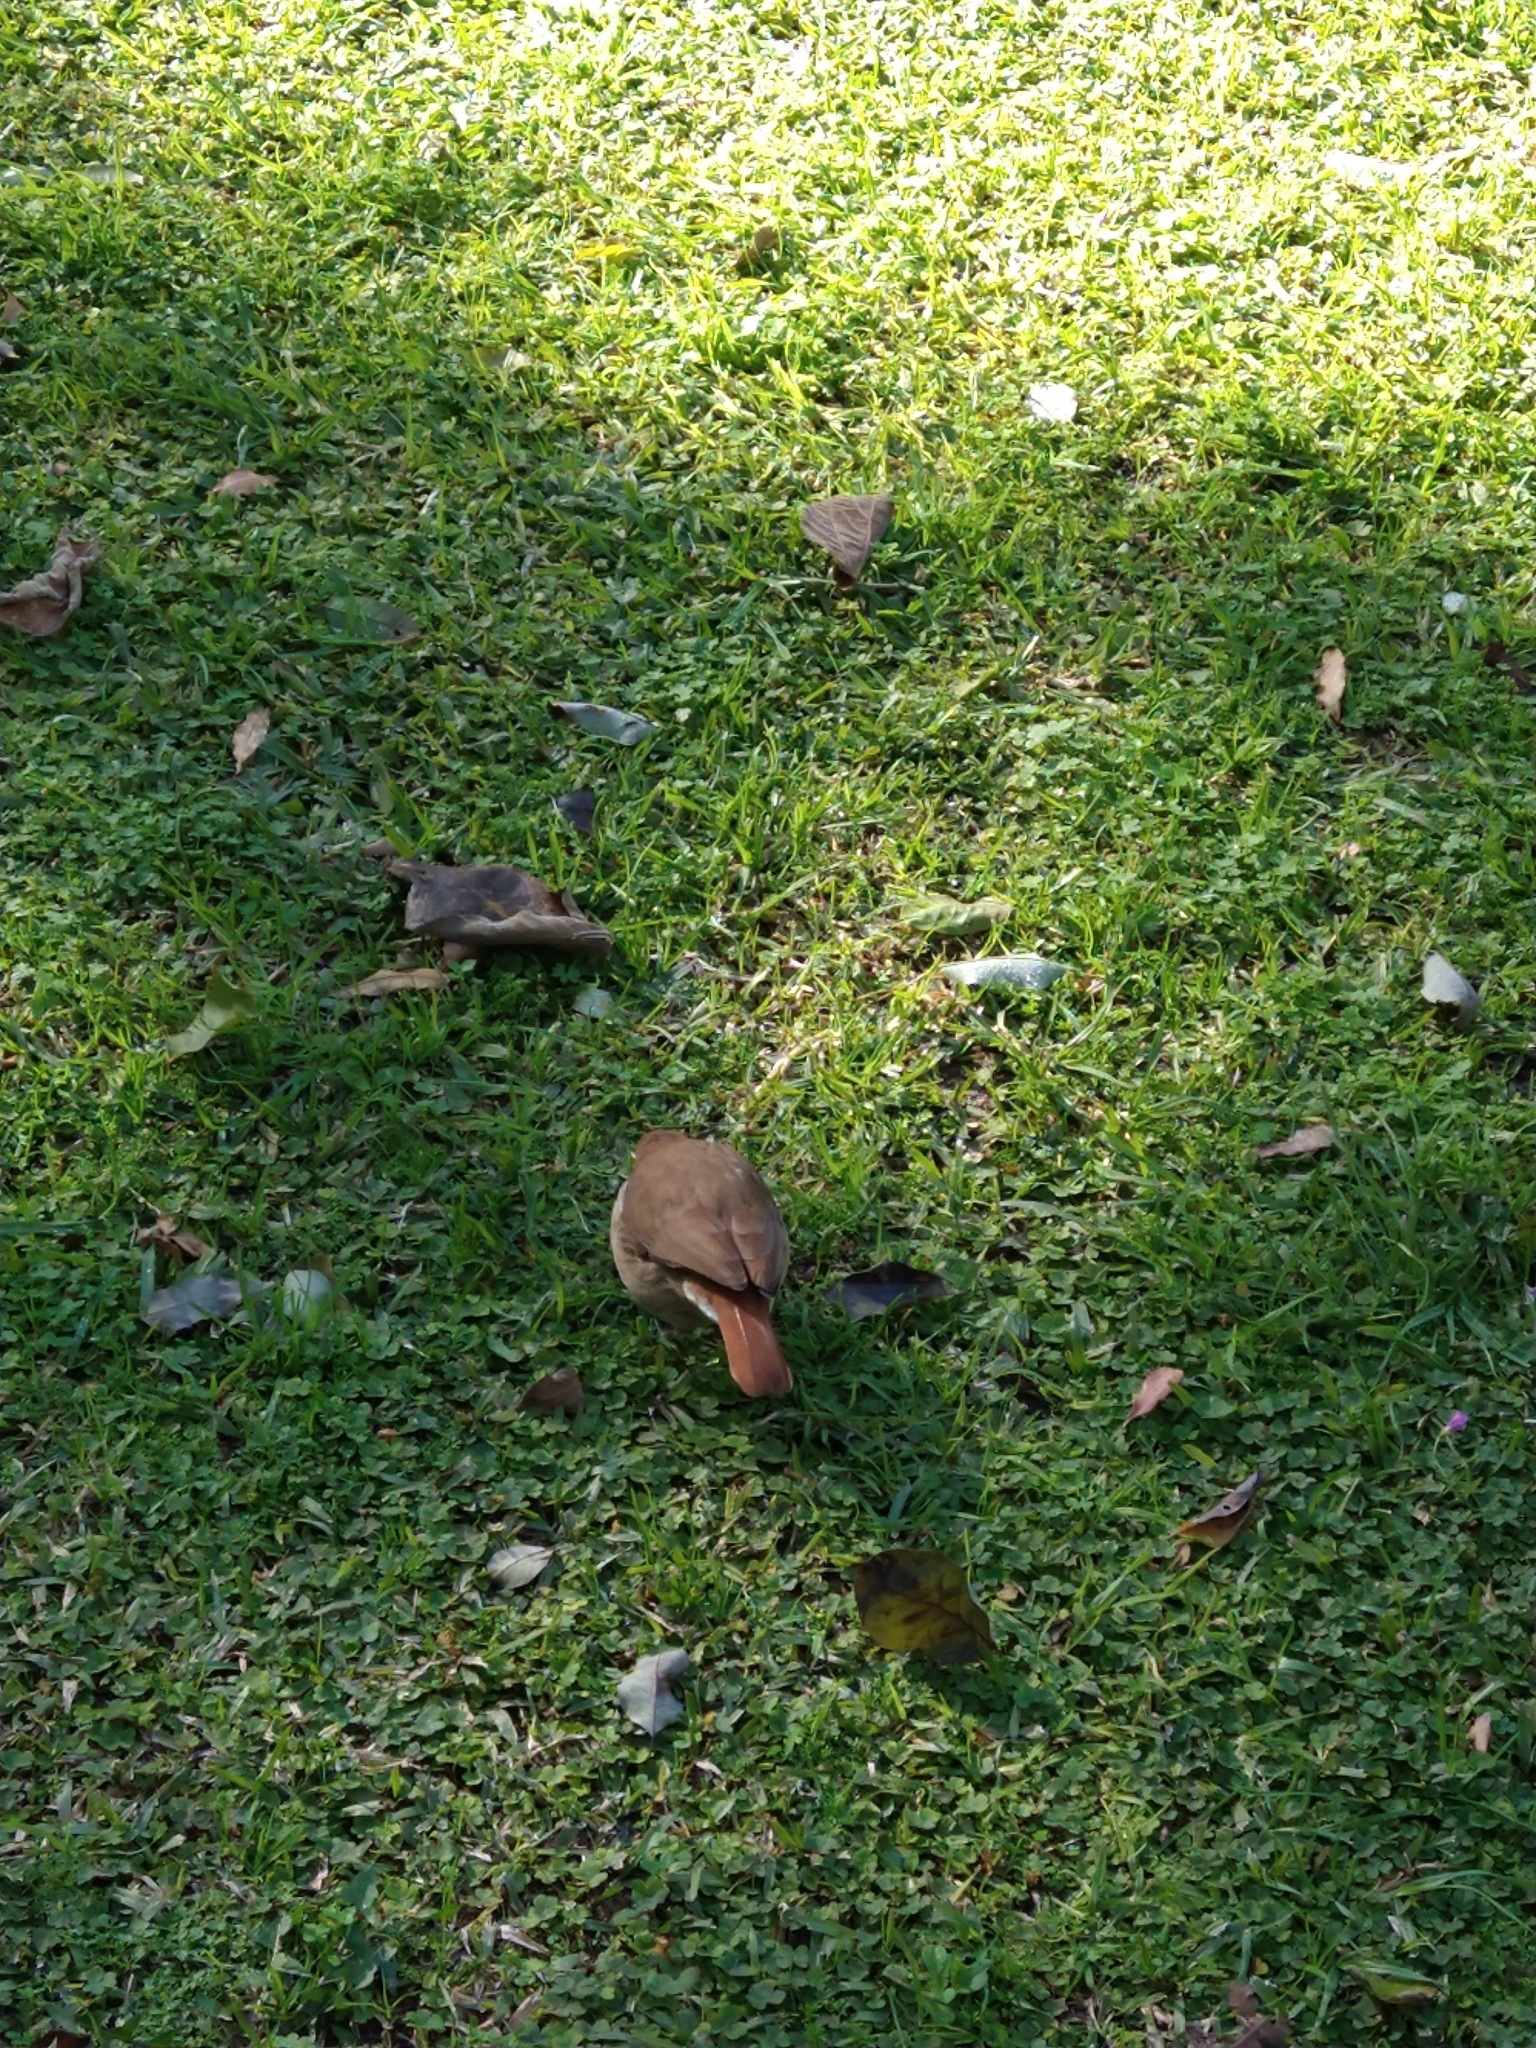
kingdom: Animalia
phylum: Chordata
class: Aves
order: Passeriformes
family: Furnariidae
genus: Furnarius
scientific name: Furnarius rufus
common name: Rufous hornero
